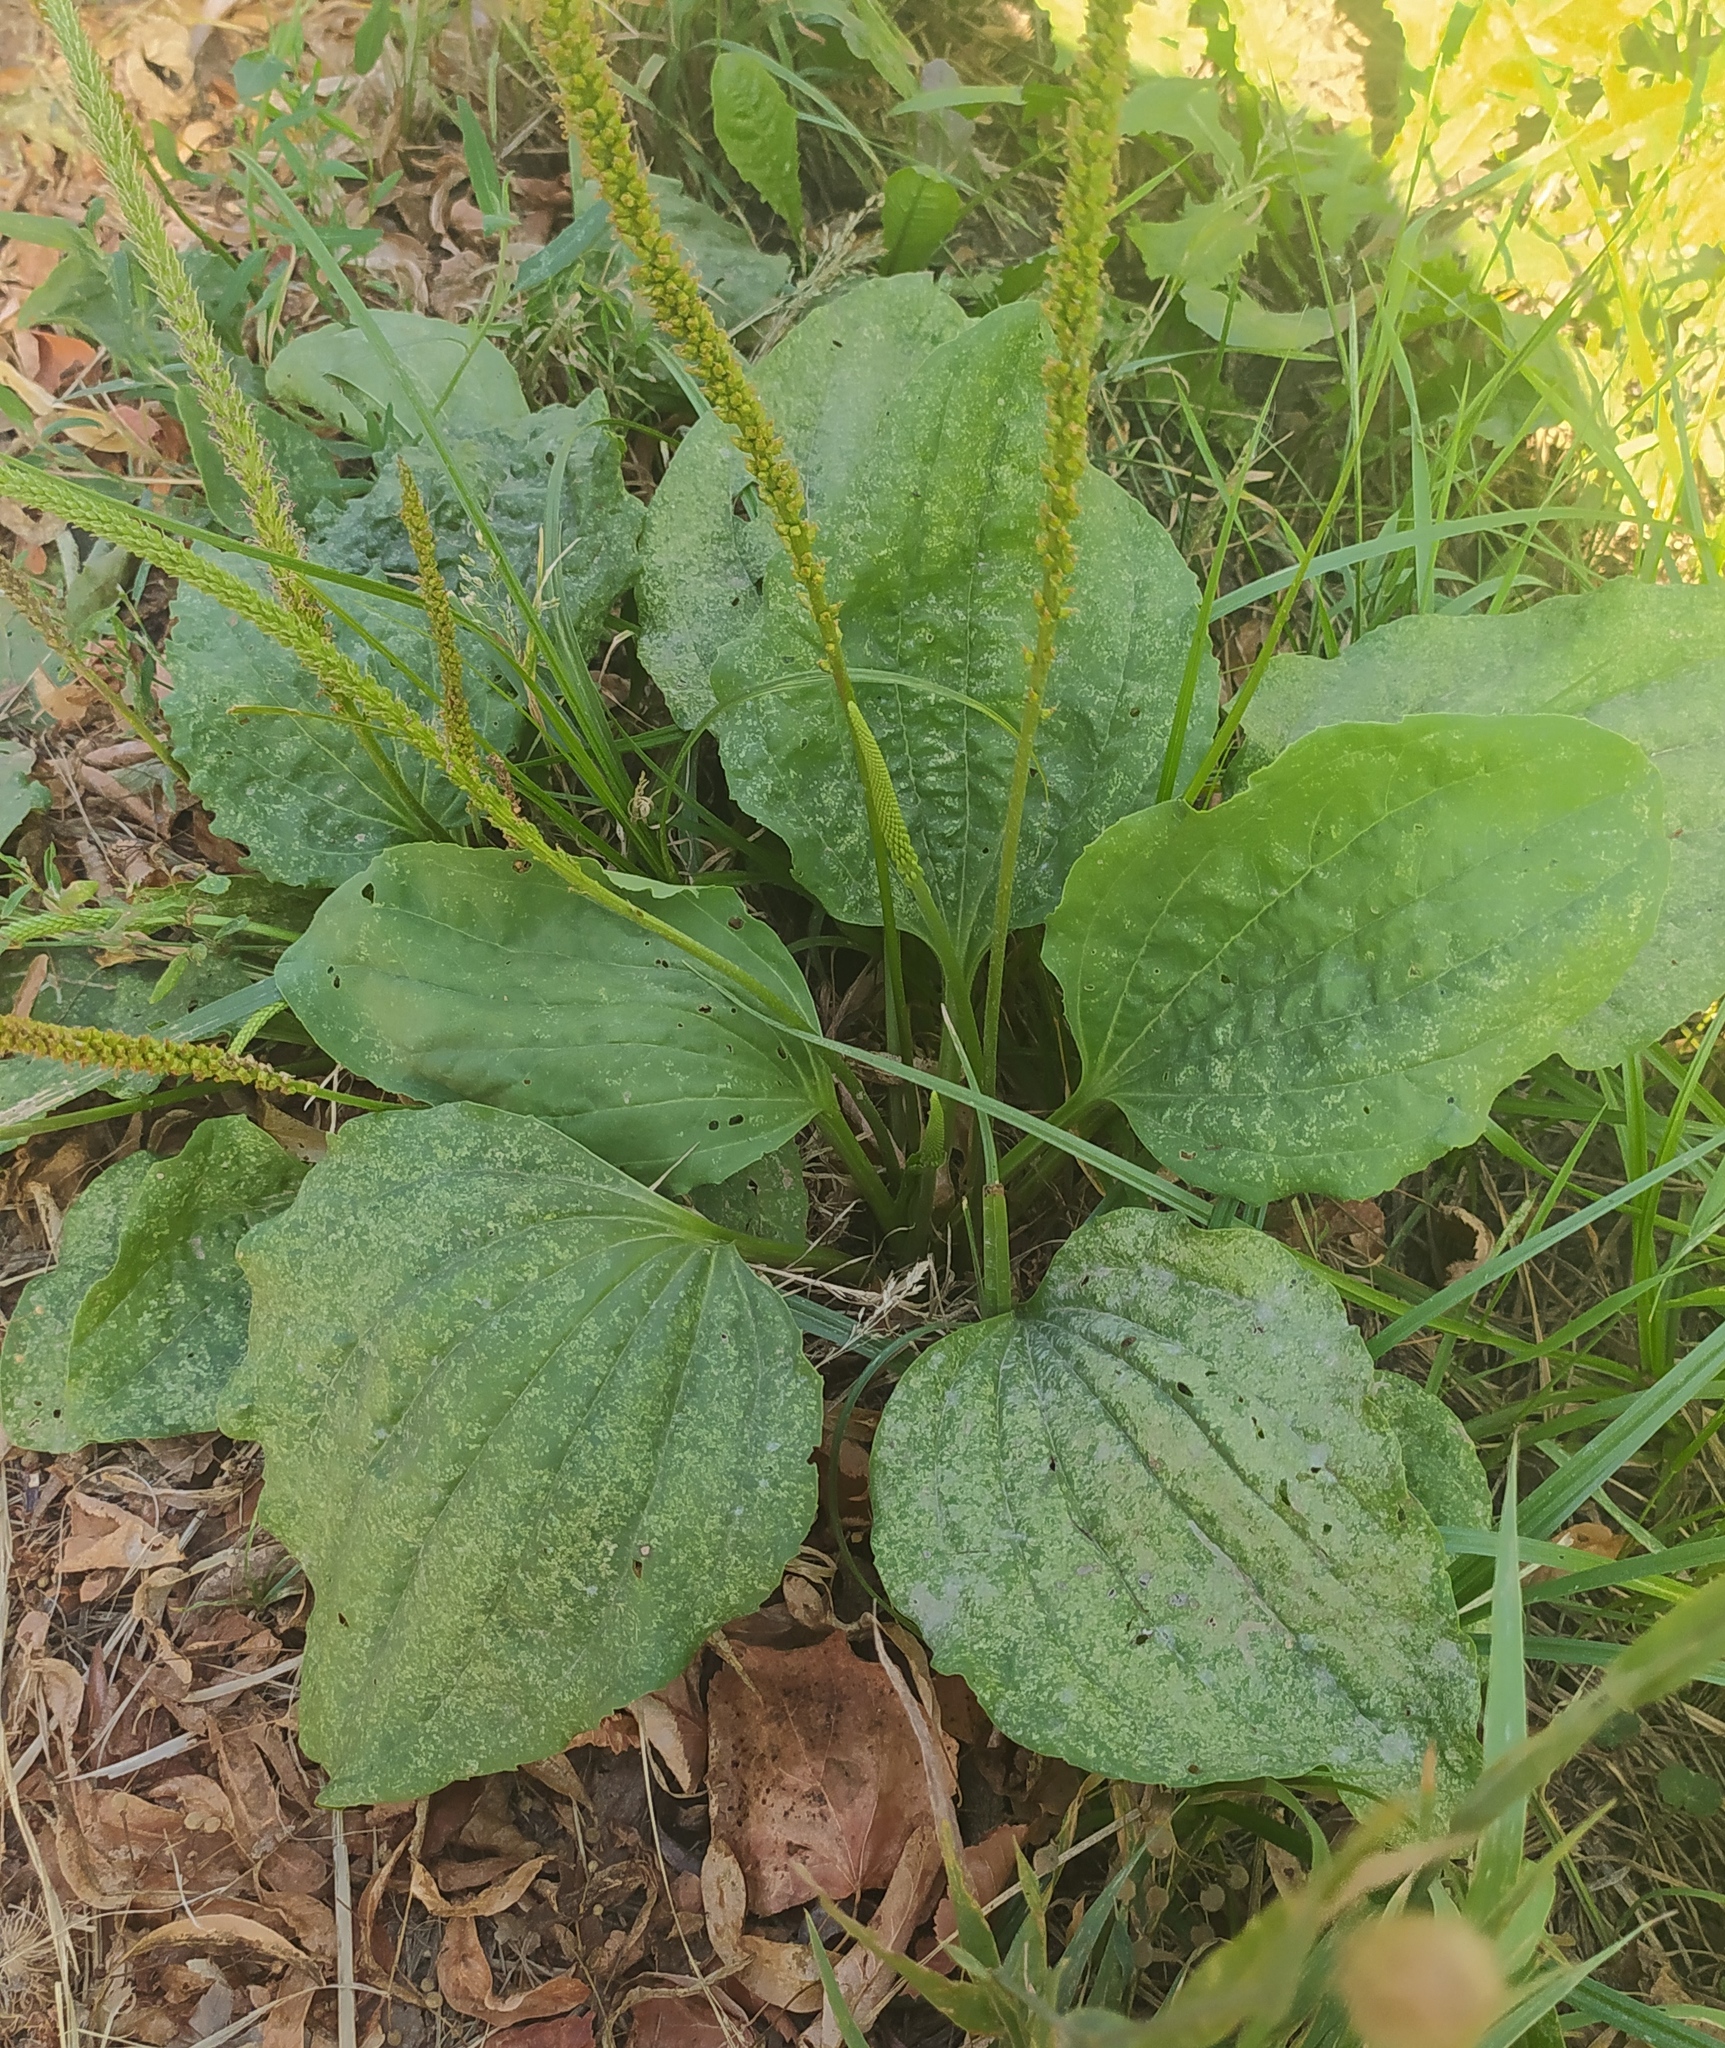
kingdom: Plantae
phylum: Tracheophyta
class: Magnoliopsida
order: Lamiales
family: Plantaginaceae
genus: Plantago
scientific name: Plantago major
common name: Common plantain
